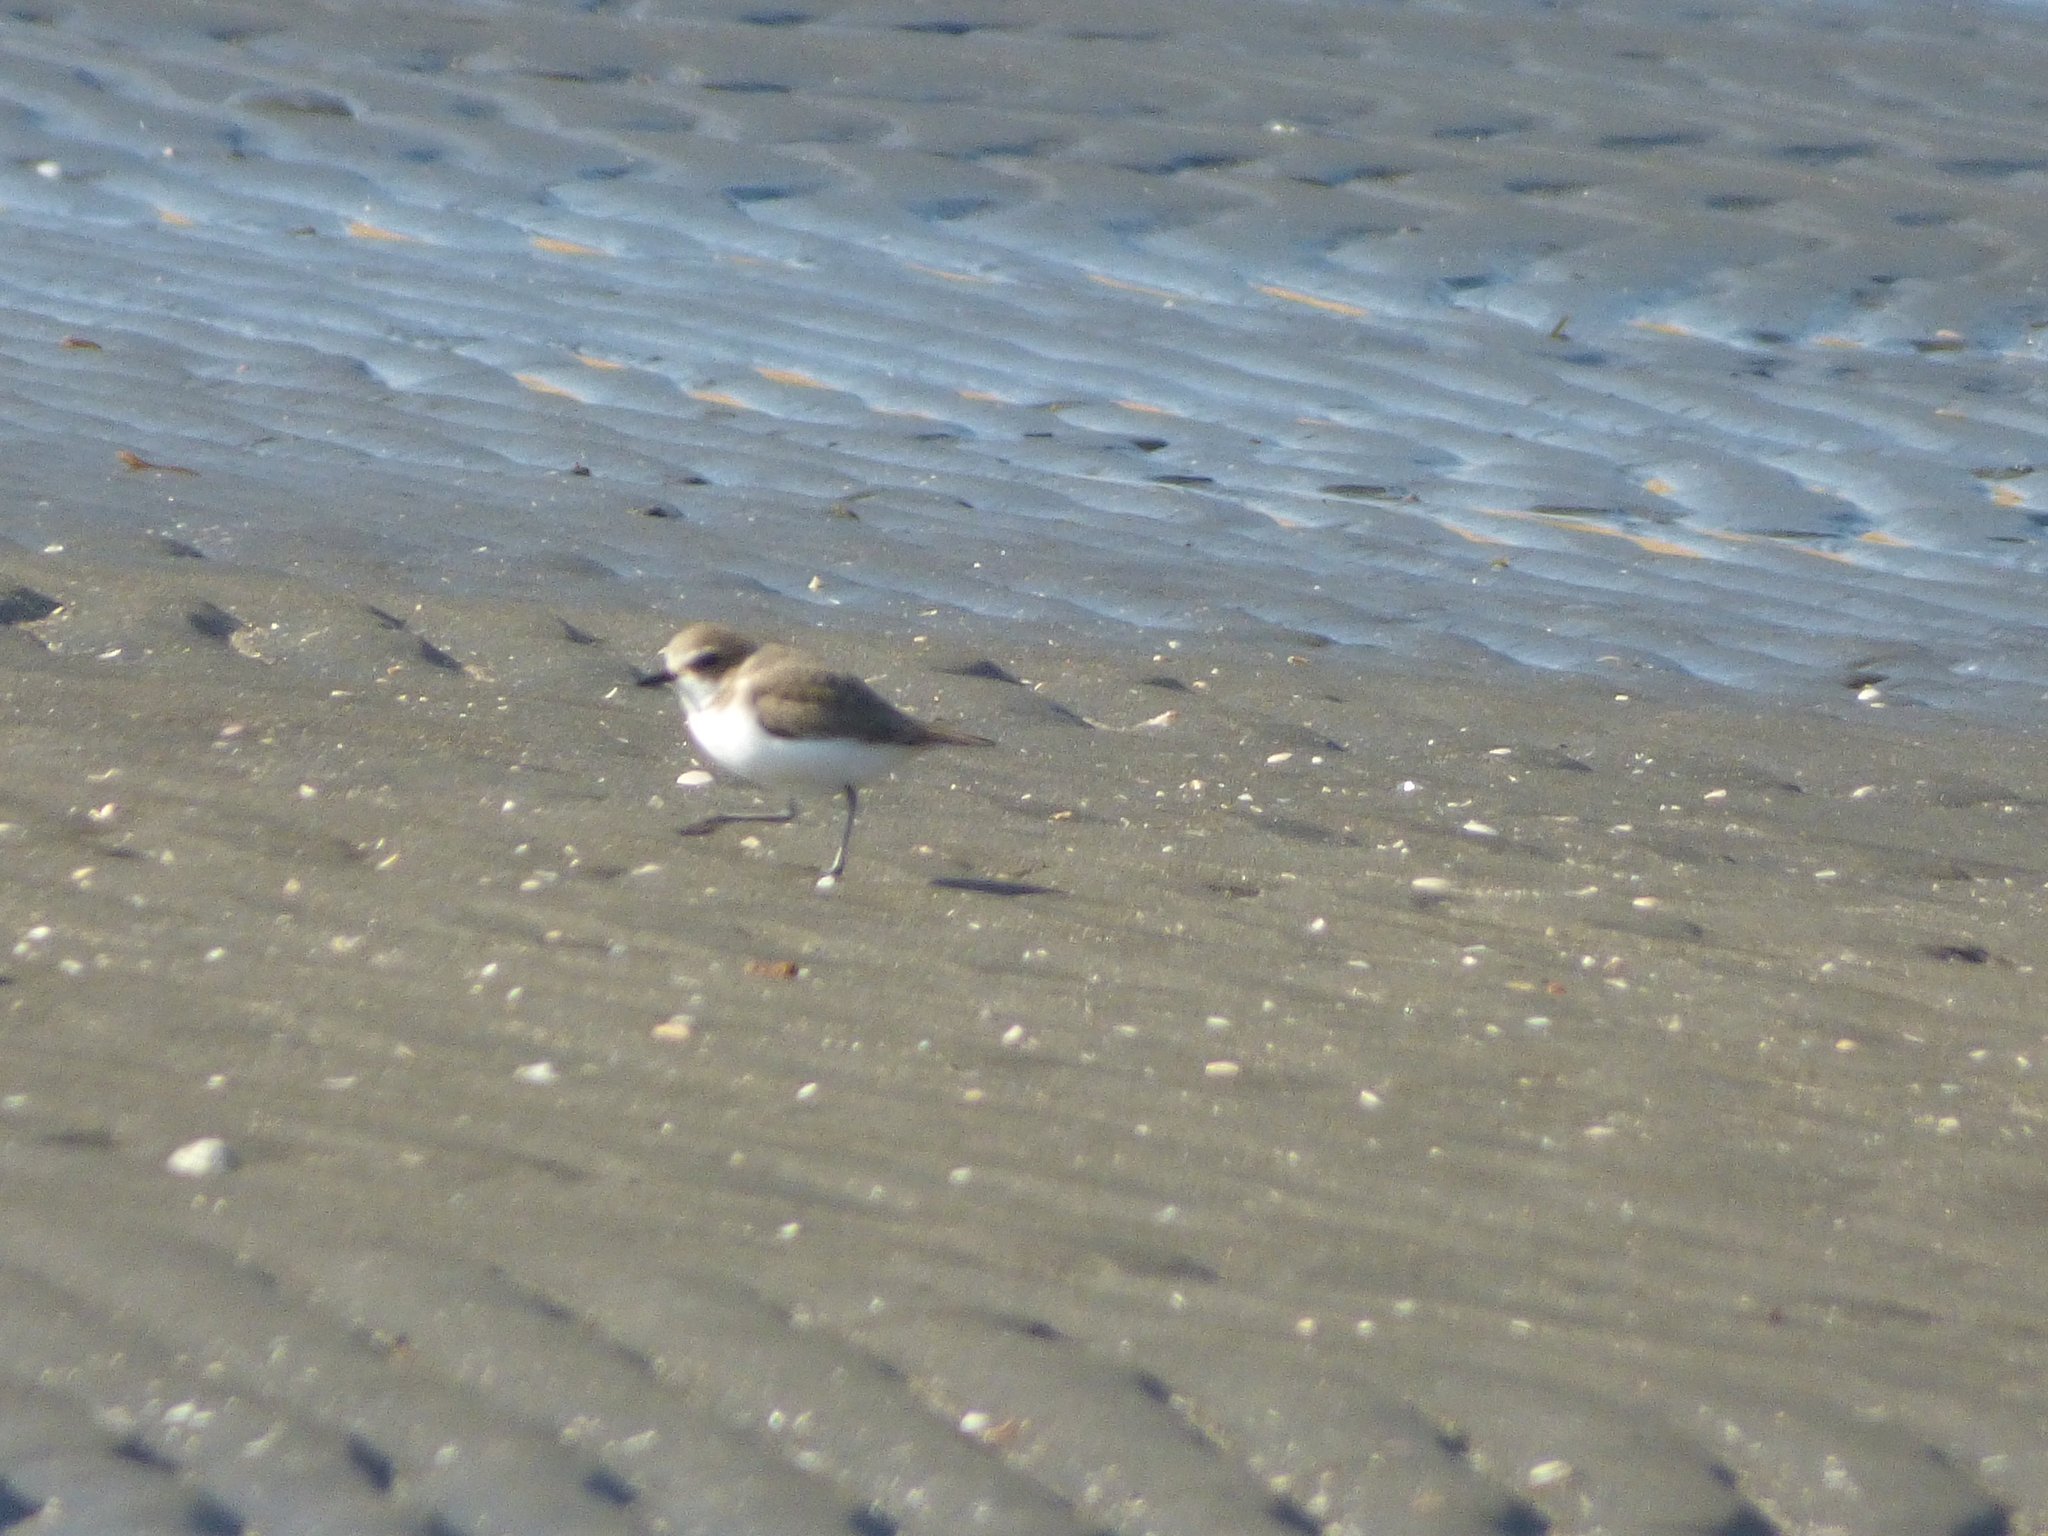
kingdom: Animalia
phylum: Chordata
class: Aves
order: Charadriiformes
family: Charadriidae
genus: Charadrius
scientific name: Charadrius alexandrinus
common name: Kentish plover
